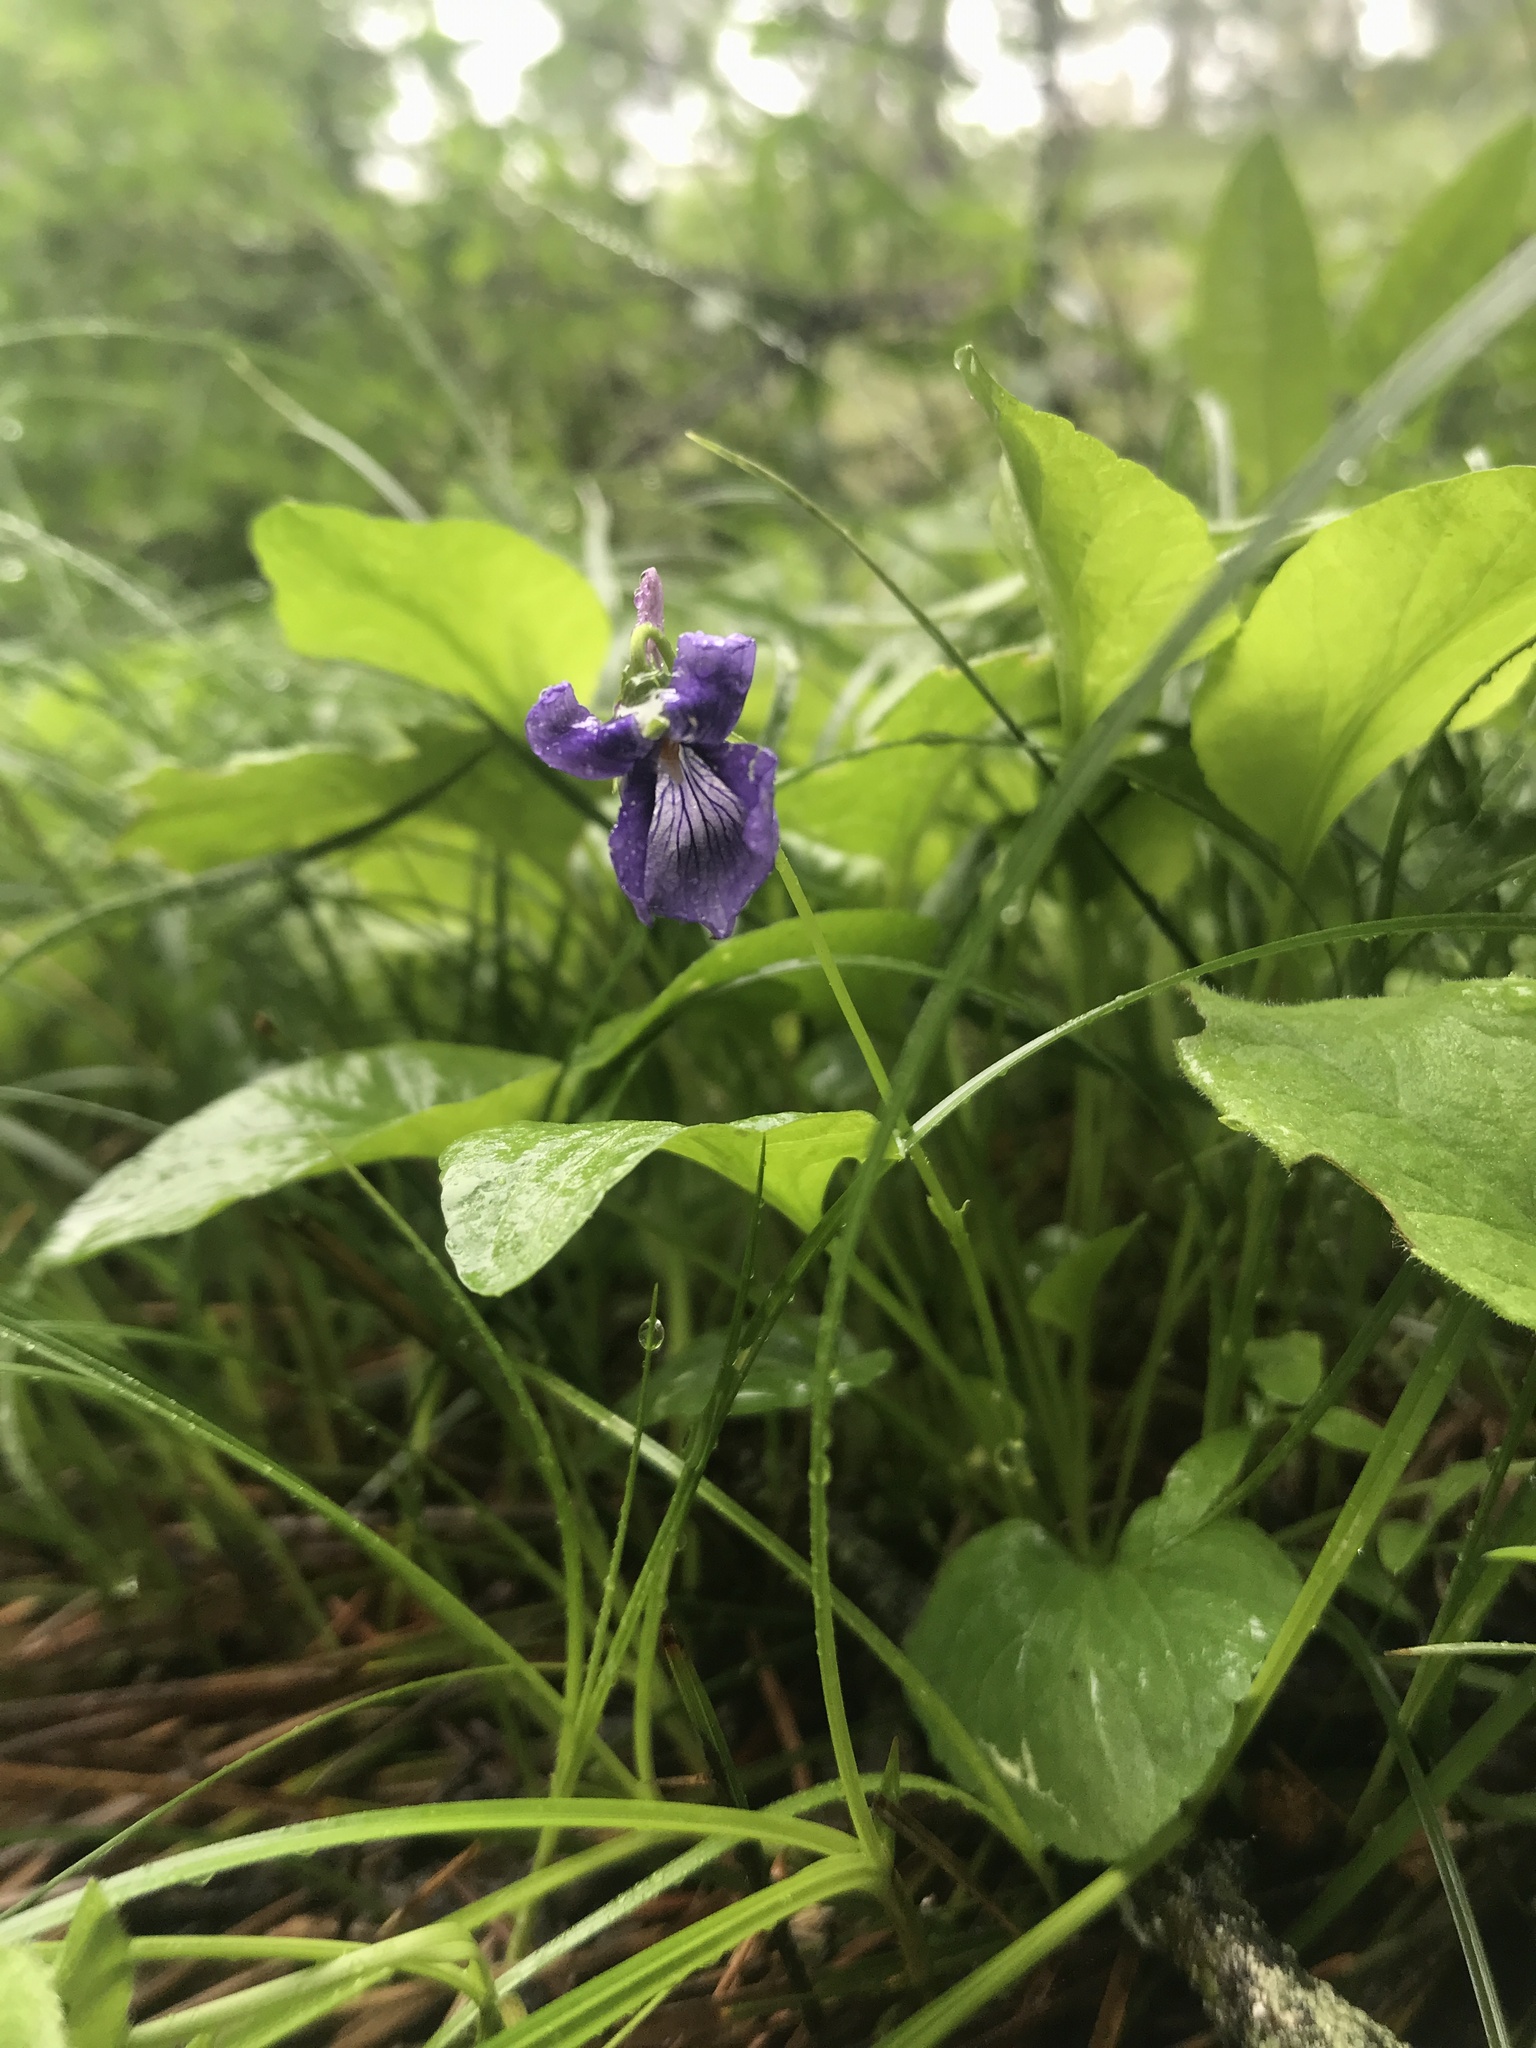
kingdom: Plantae
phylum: Tracheophyta
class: Magnoliopsida
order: Malpighiales
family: Violaceae
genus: Viola
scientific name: Viola adunca
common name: Sand violet
